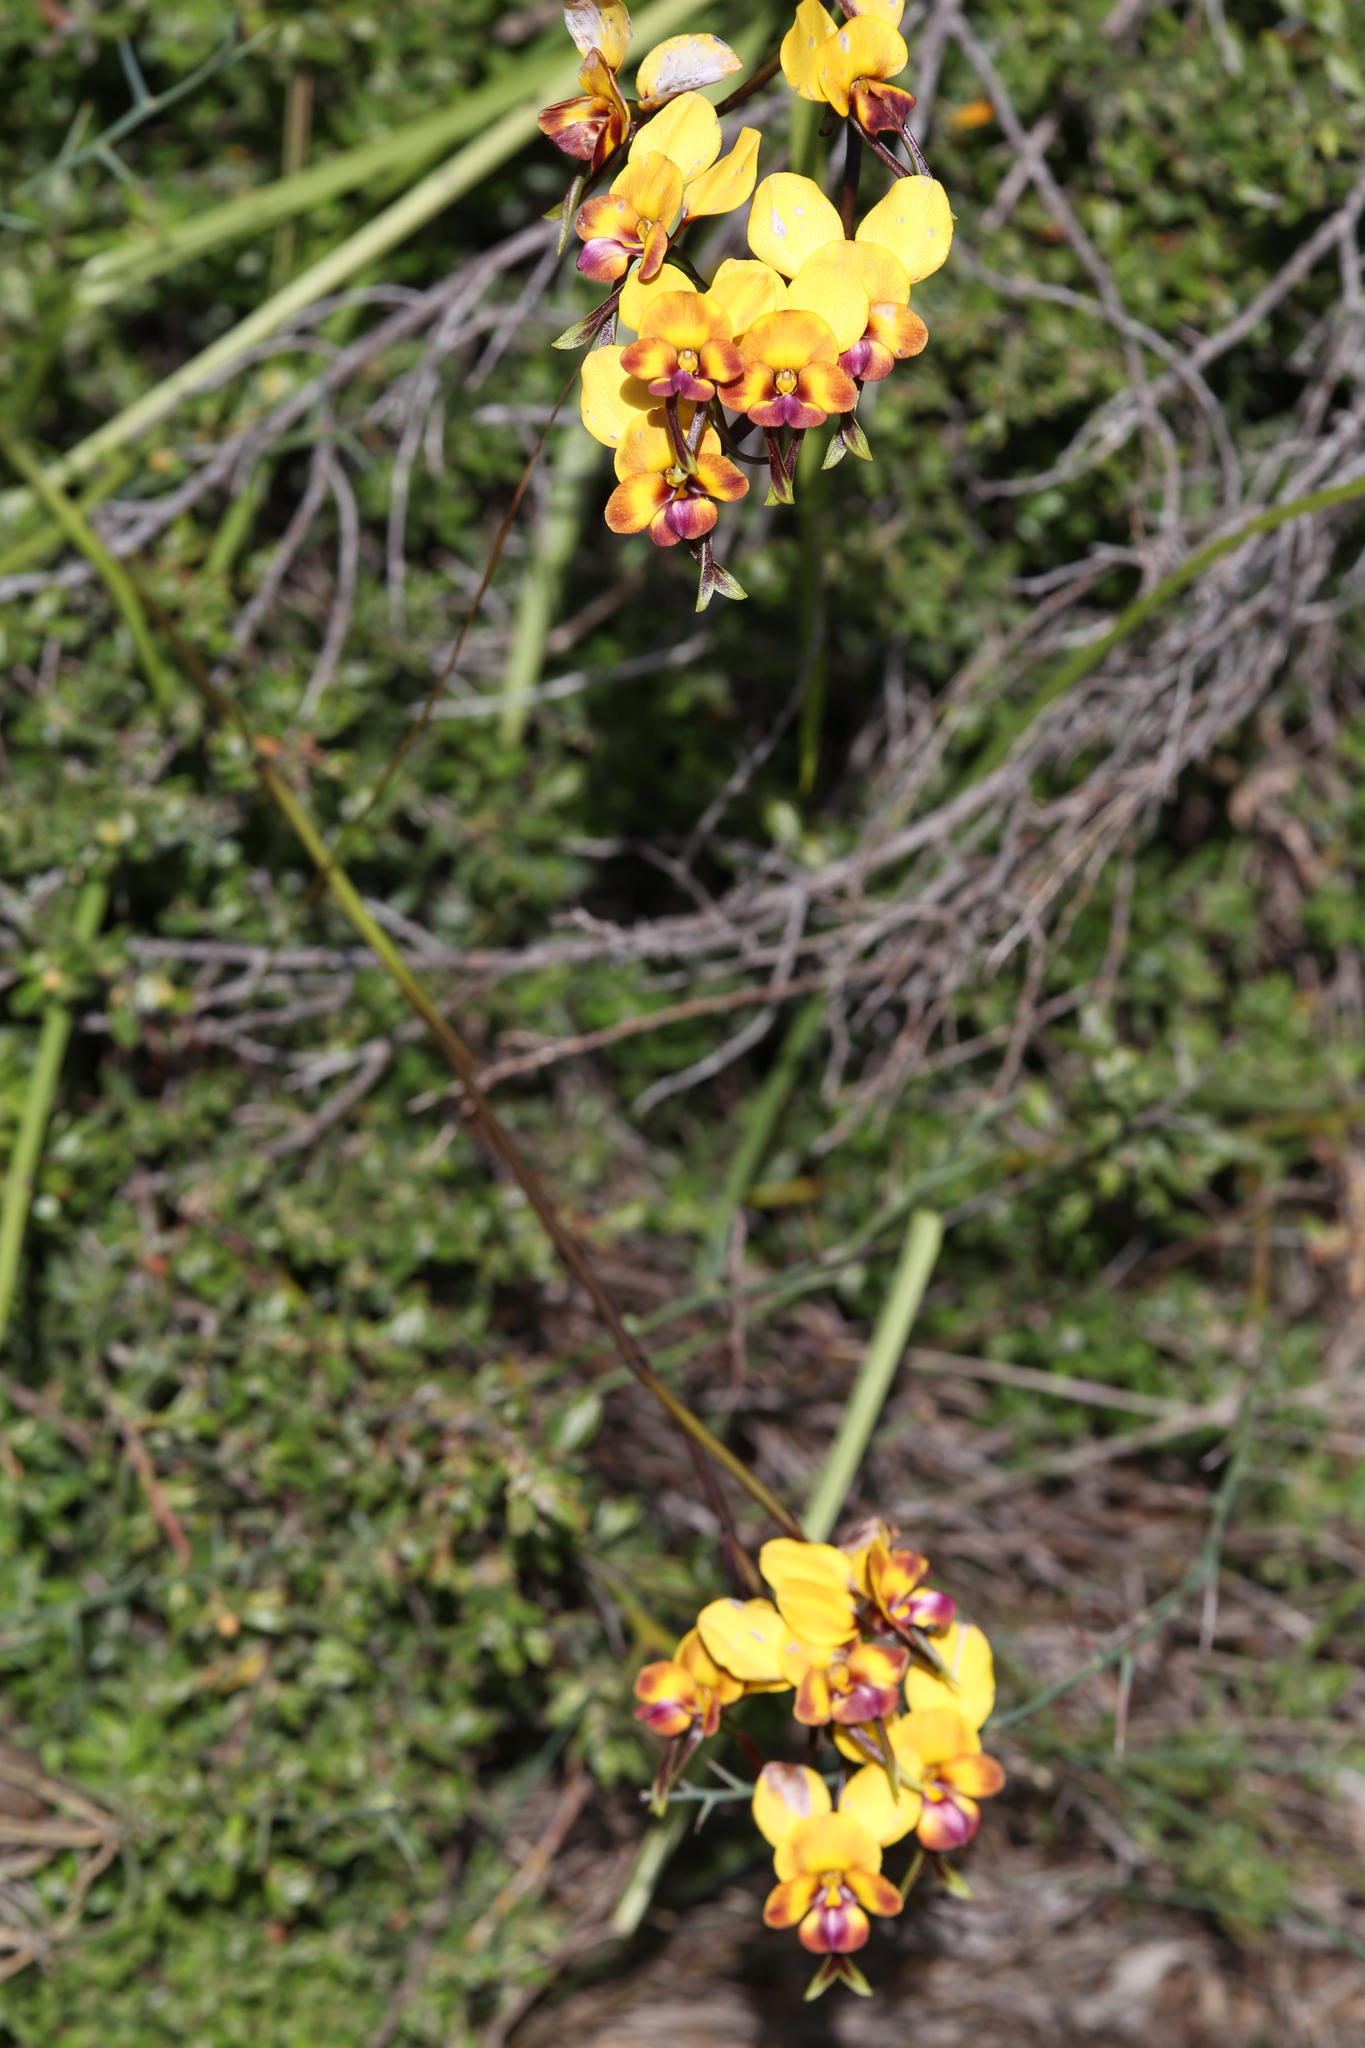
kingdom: Plantae
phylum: Tracheophyta
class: Liliopsida
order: Asparagales
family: Orchidaceae
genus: Diuris
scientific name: Diuris magnifica
